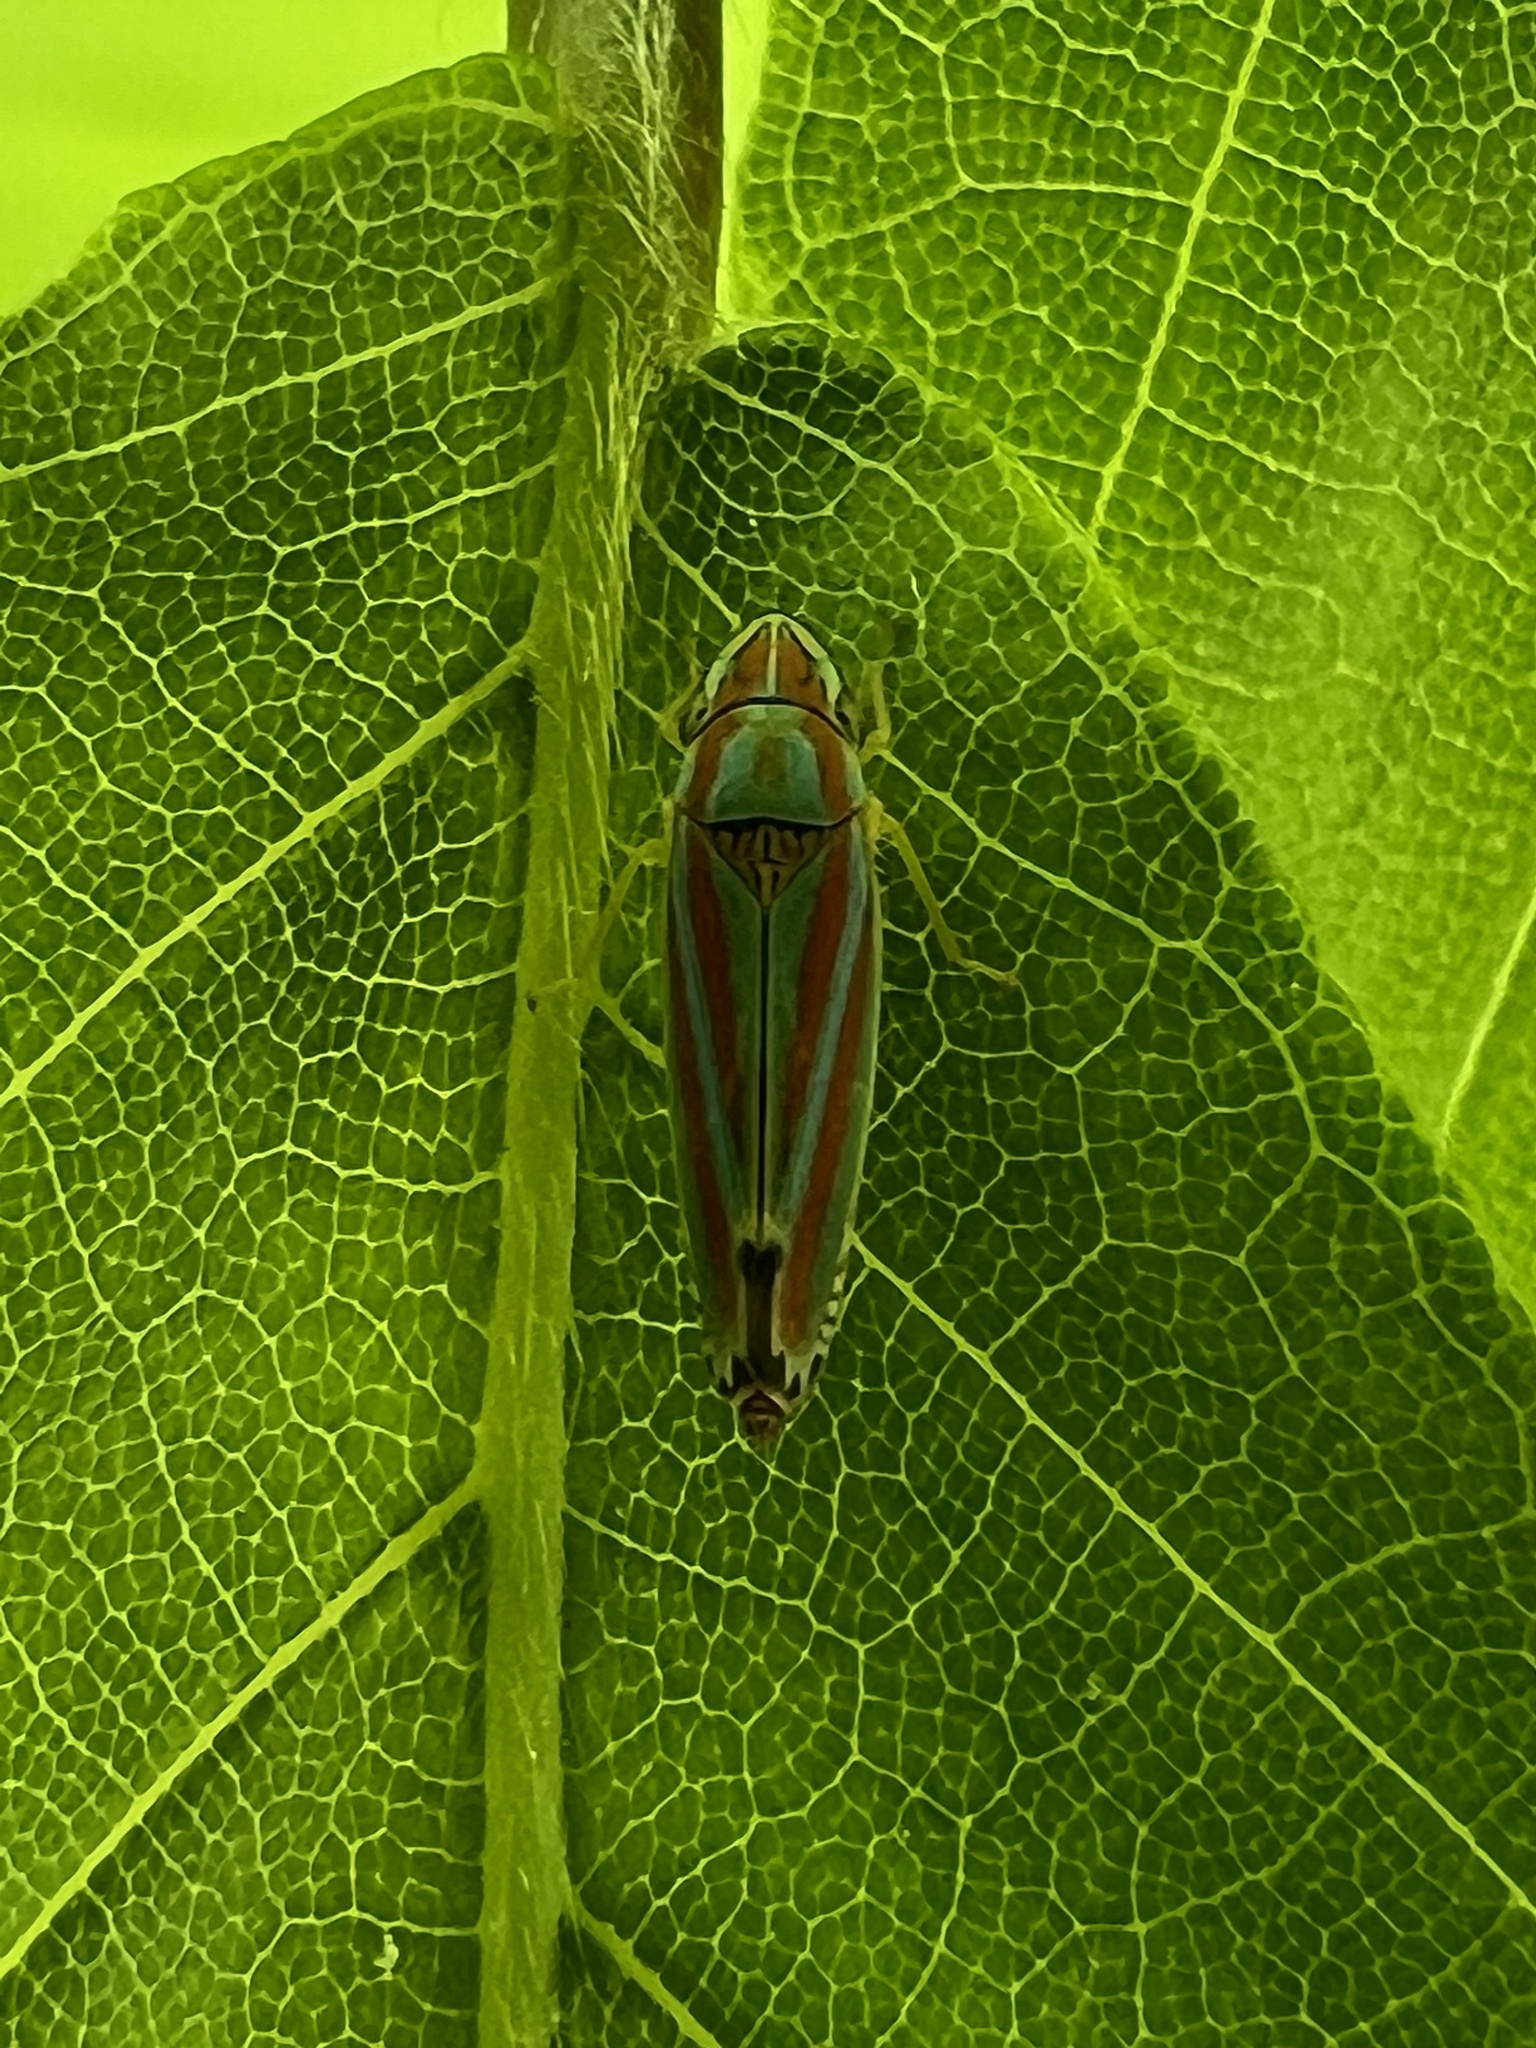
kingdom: Animalia
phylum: Arthropoda
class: Insecta
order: Hemiptera
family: Cicadellidae
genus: Graphocephala
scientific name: Graphocephala versuta
